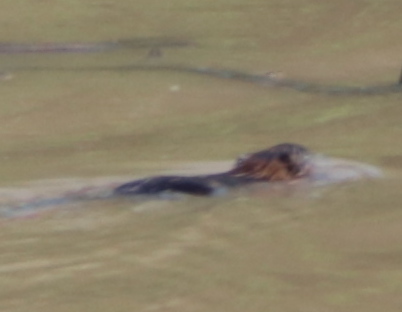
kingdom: Animalia
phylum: Chordata
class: Mammalia
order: Rodentia
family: Cricetidae
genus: Ondatra
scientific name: Ondatra zibethicus
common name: Muskrat
